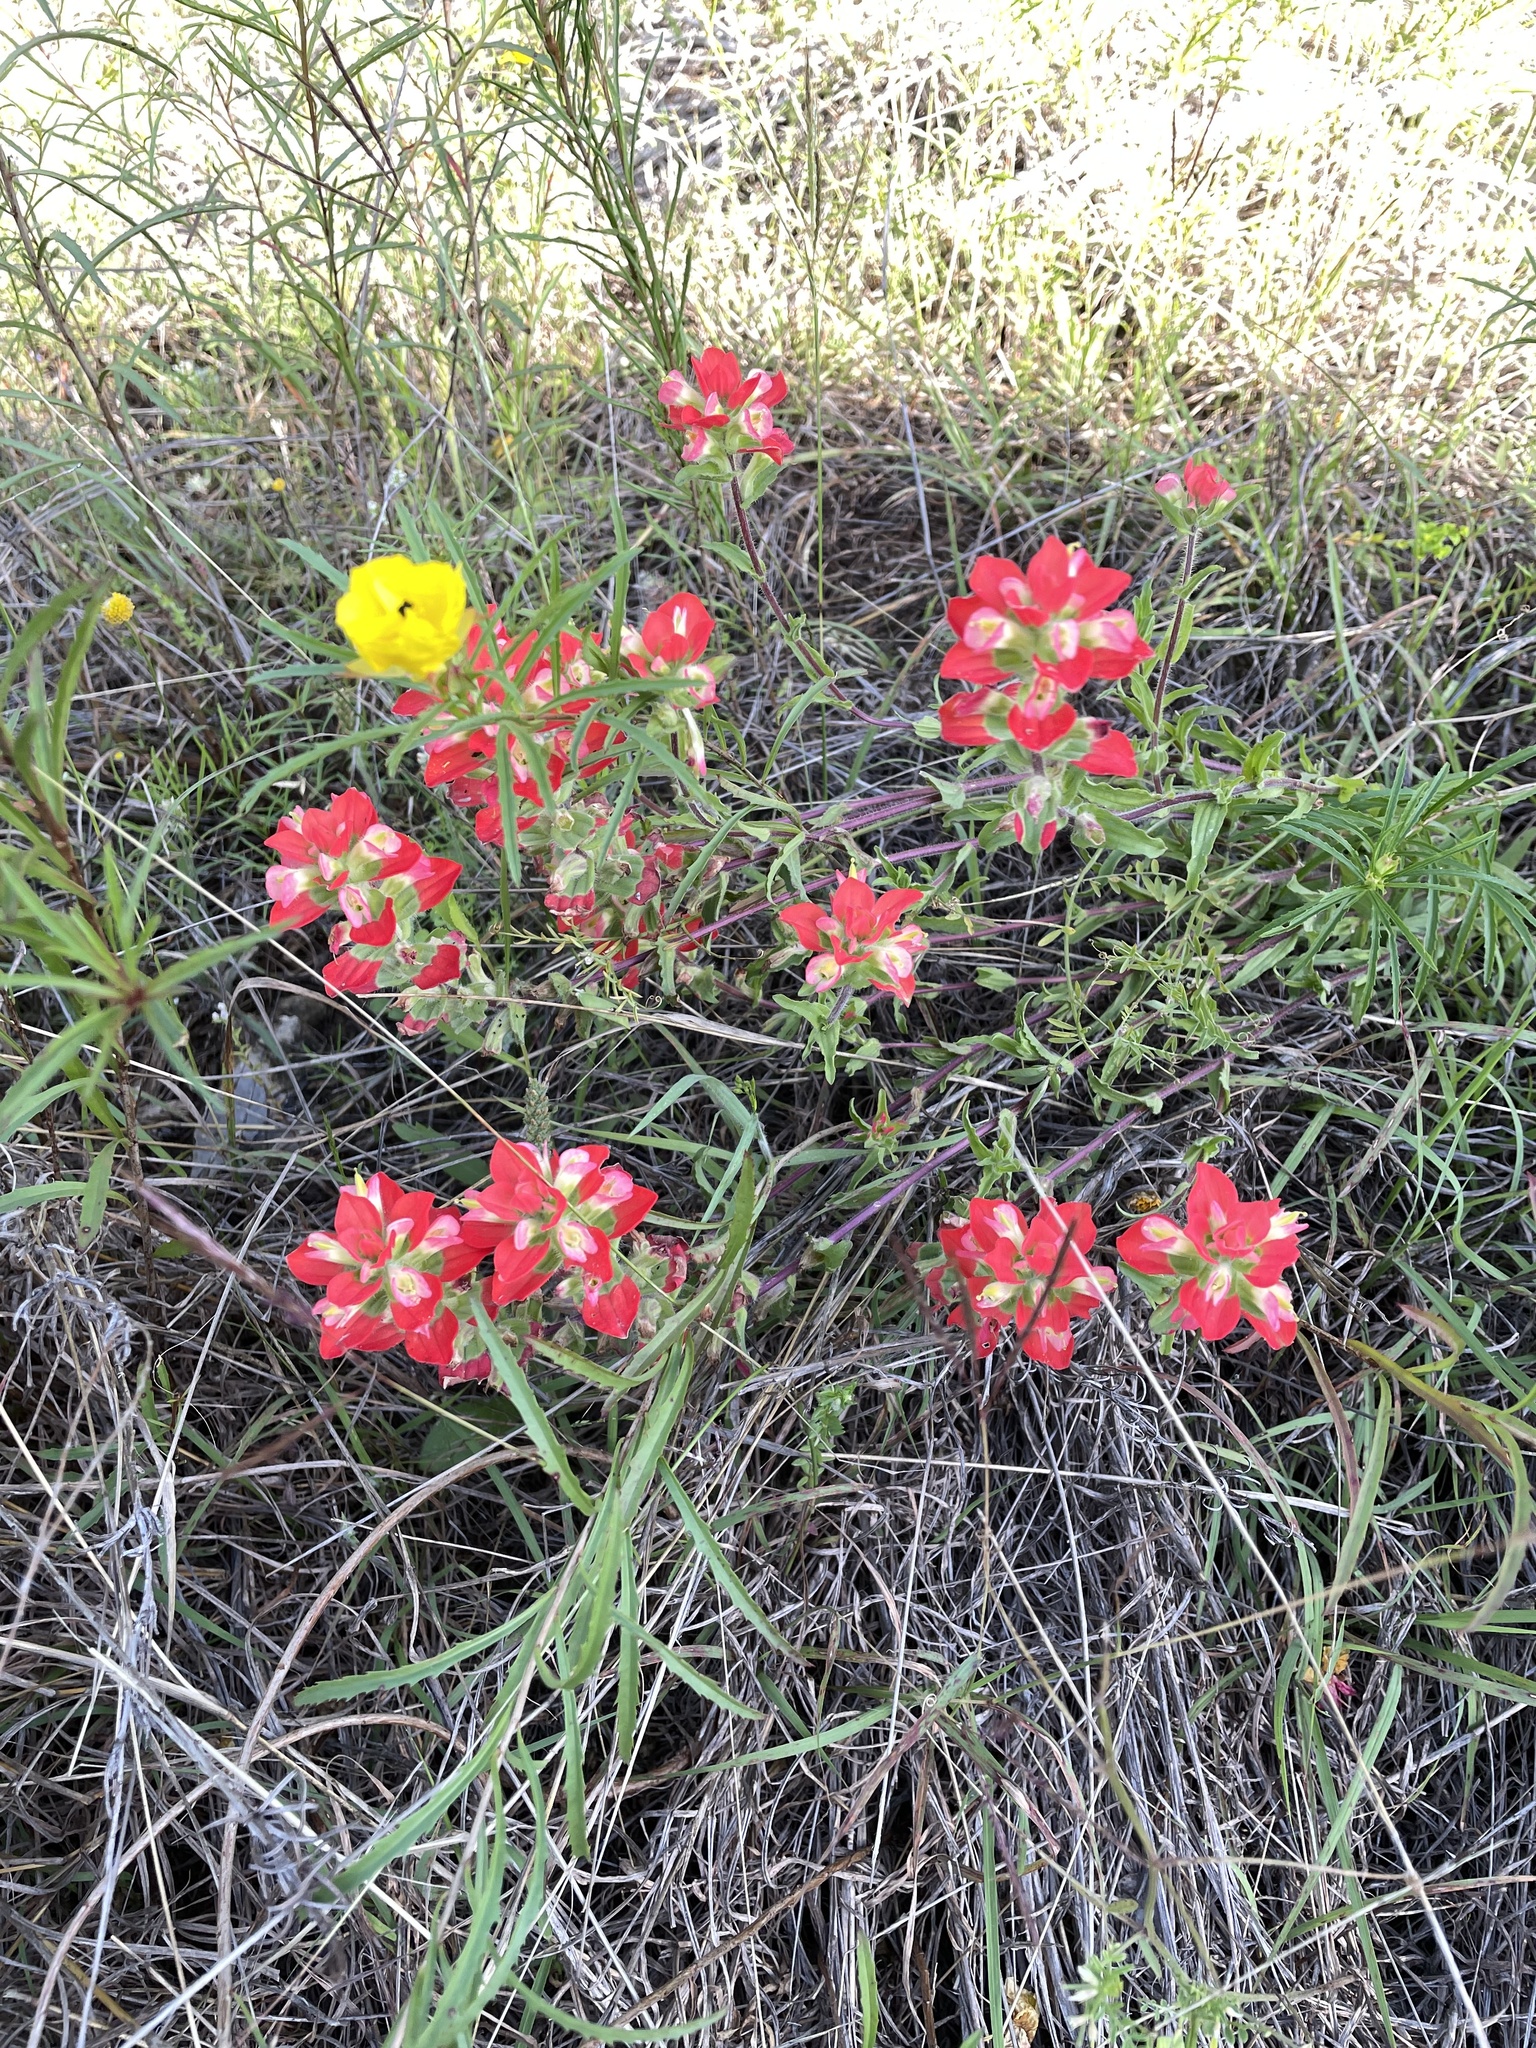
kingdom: Plantae
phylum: Tracheophyta
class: Magnoliopsida
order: Lamiales
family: Orobanchaceae
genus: Castilleja
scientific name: Castilleja indivisa
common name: Texas paintbrush
